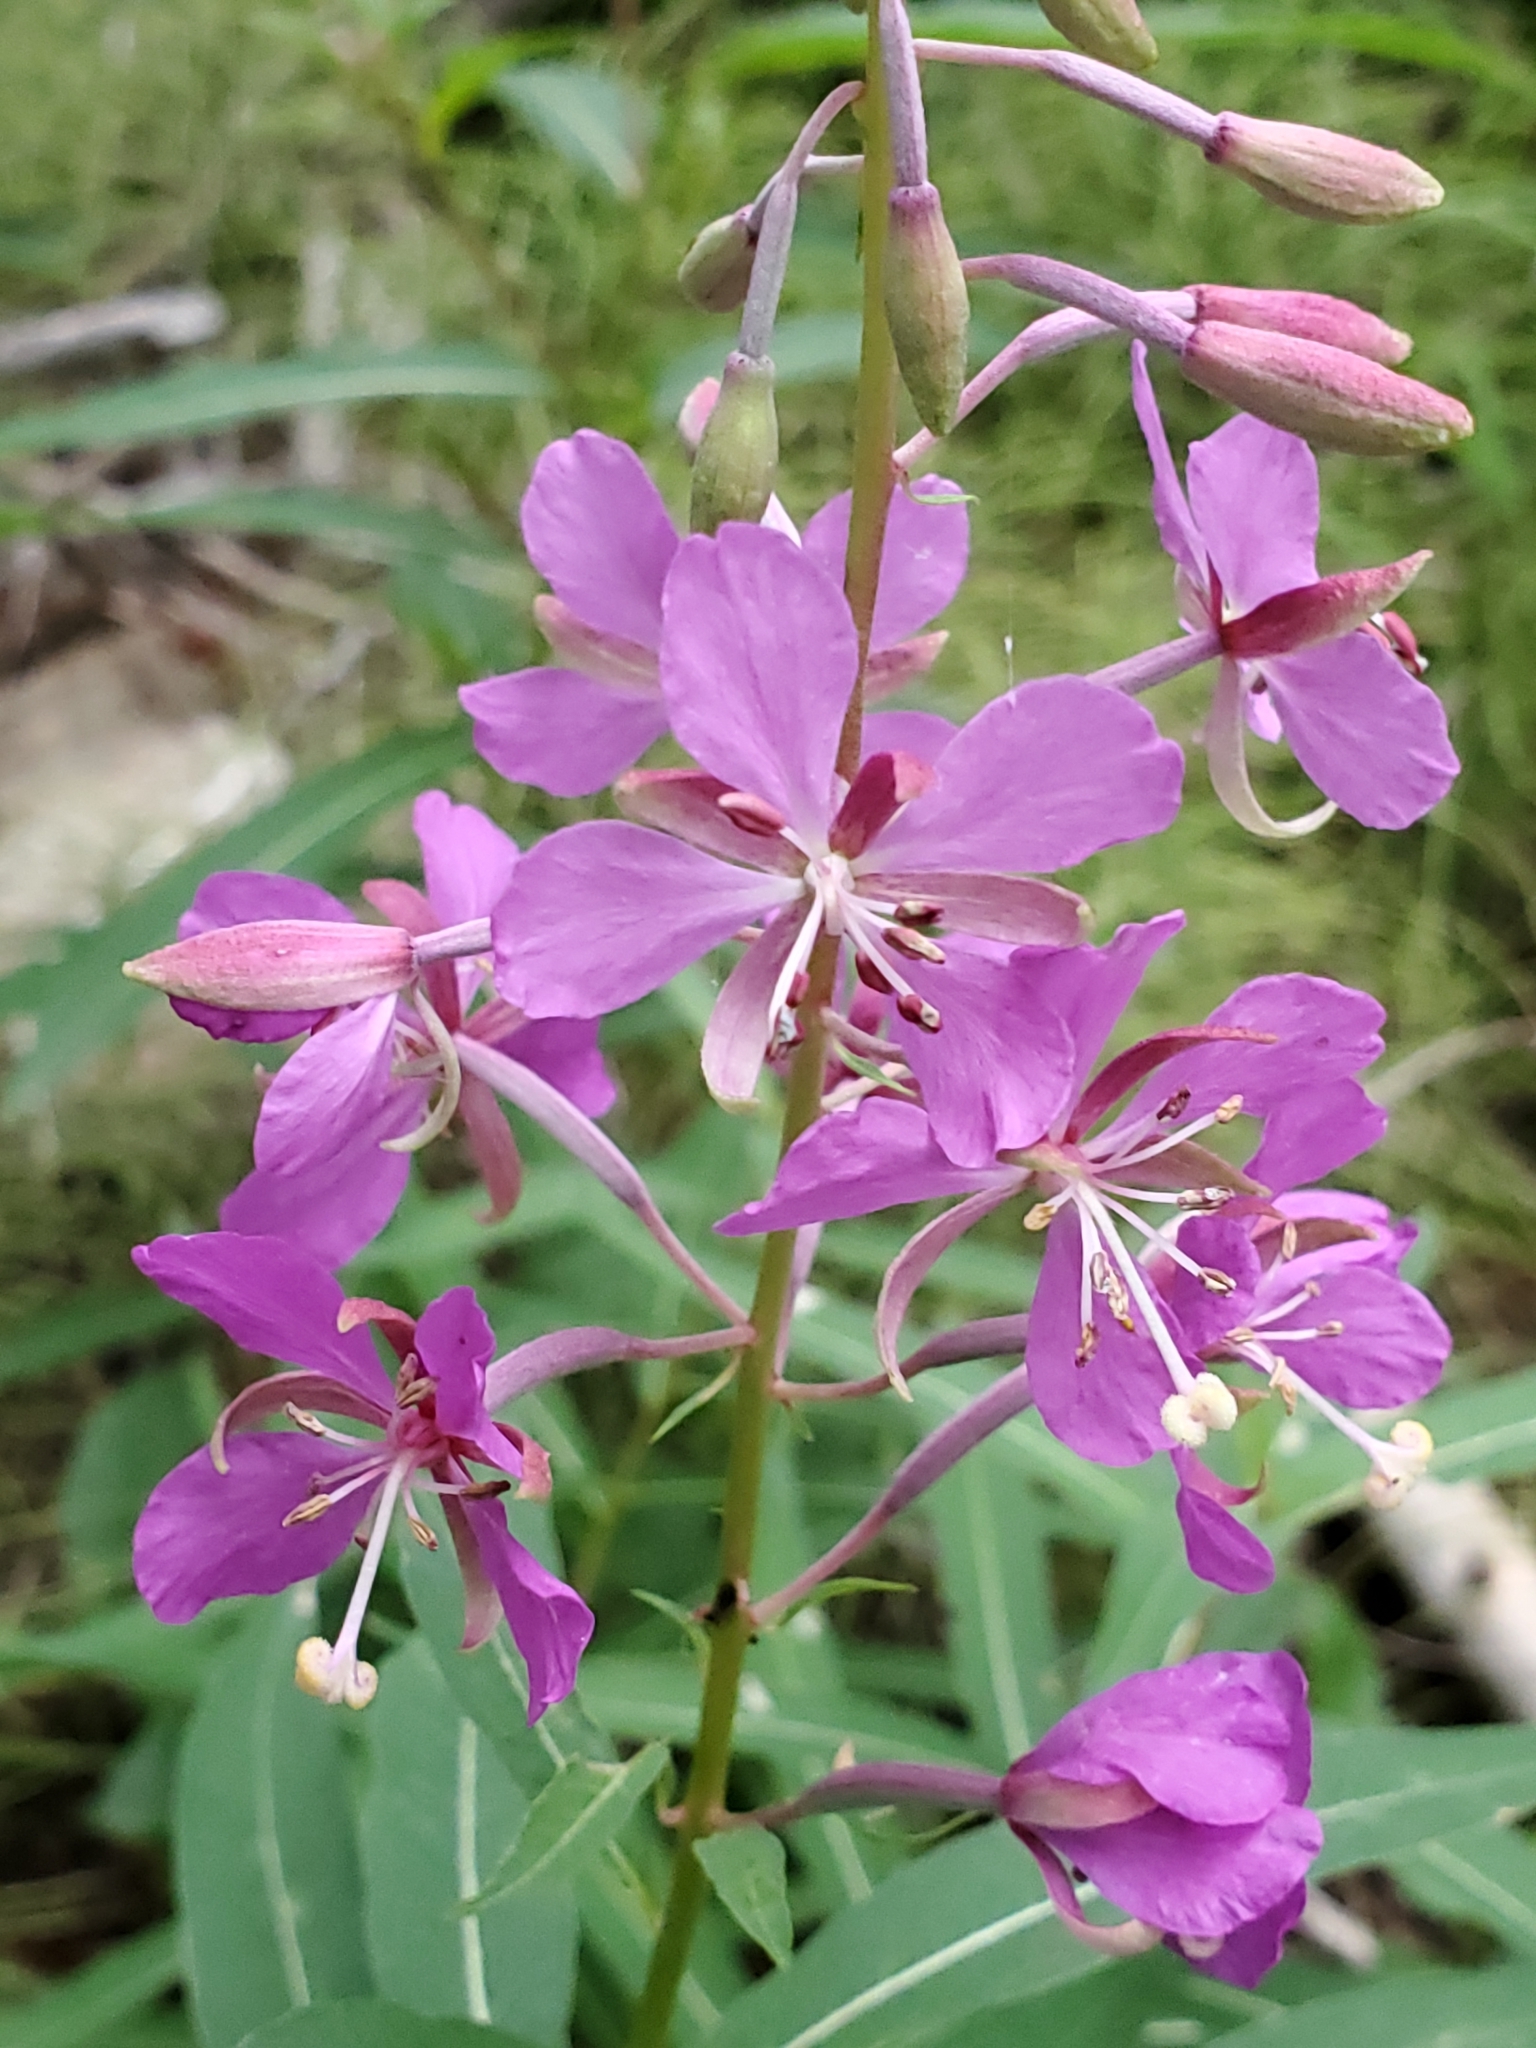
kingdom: Plantae
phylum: Tracheophyta
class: Magnoliopsida
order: Myrtales
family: Onagraceae
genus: Chamaenerion
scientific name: Chamaenerion angustifolium
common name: Fireweed
